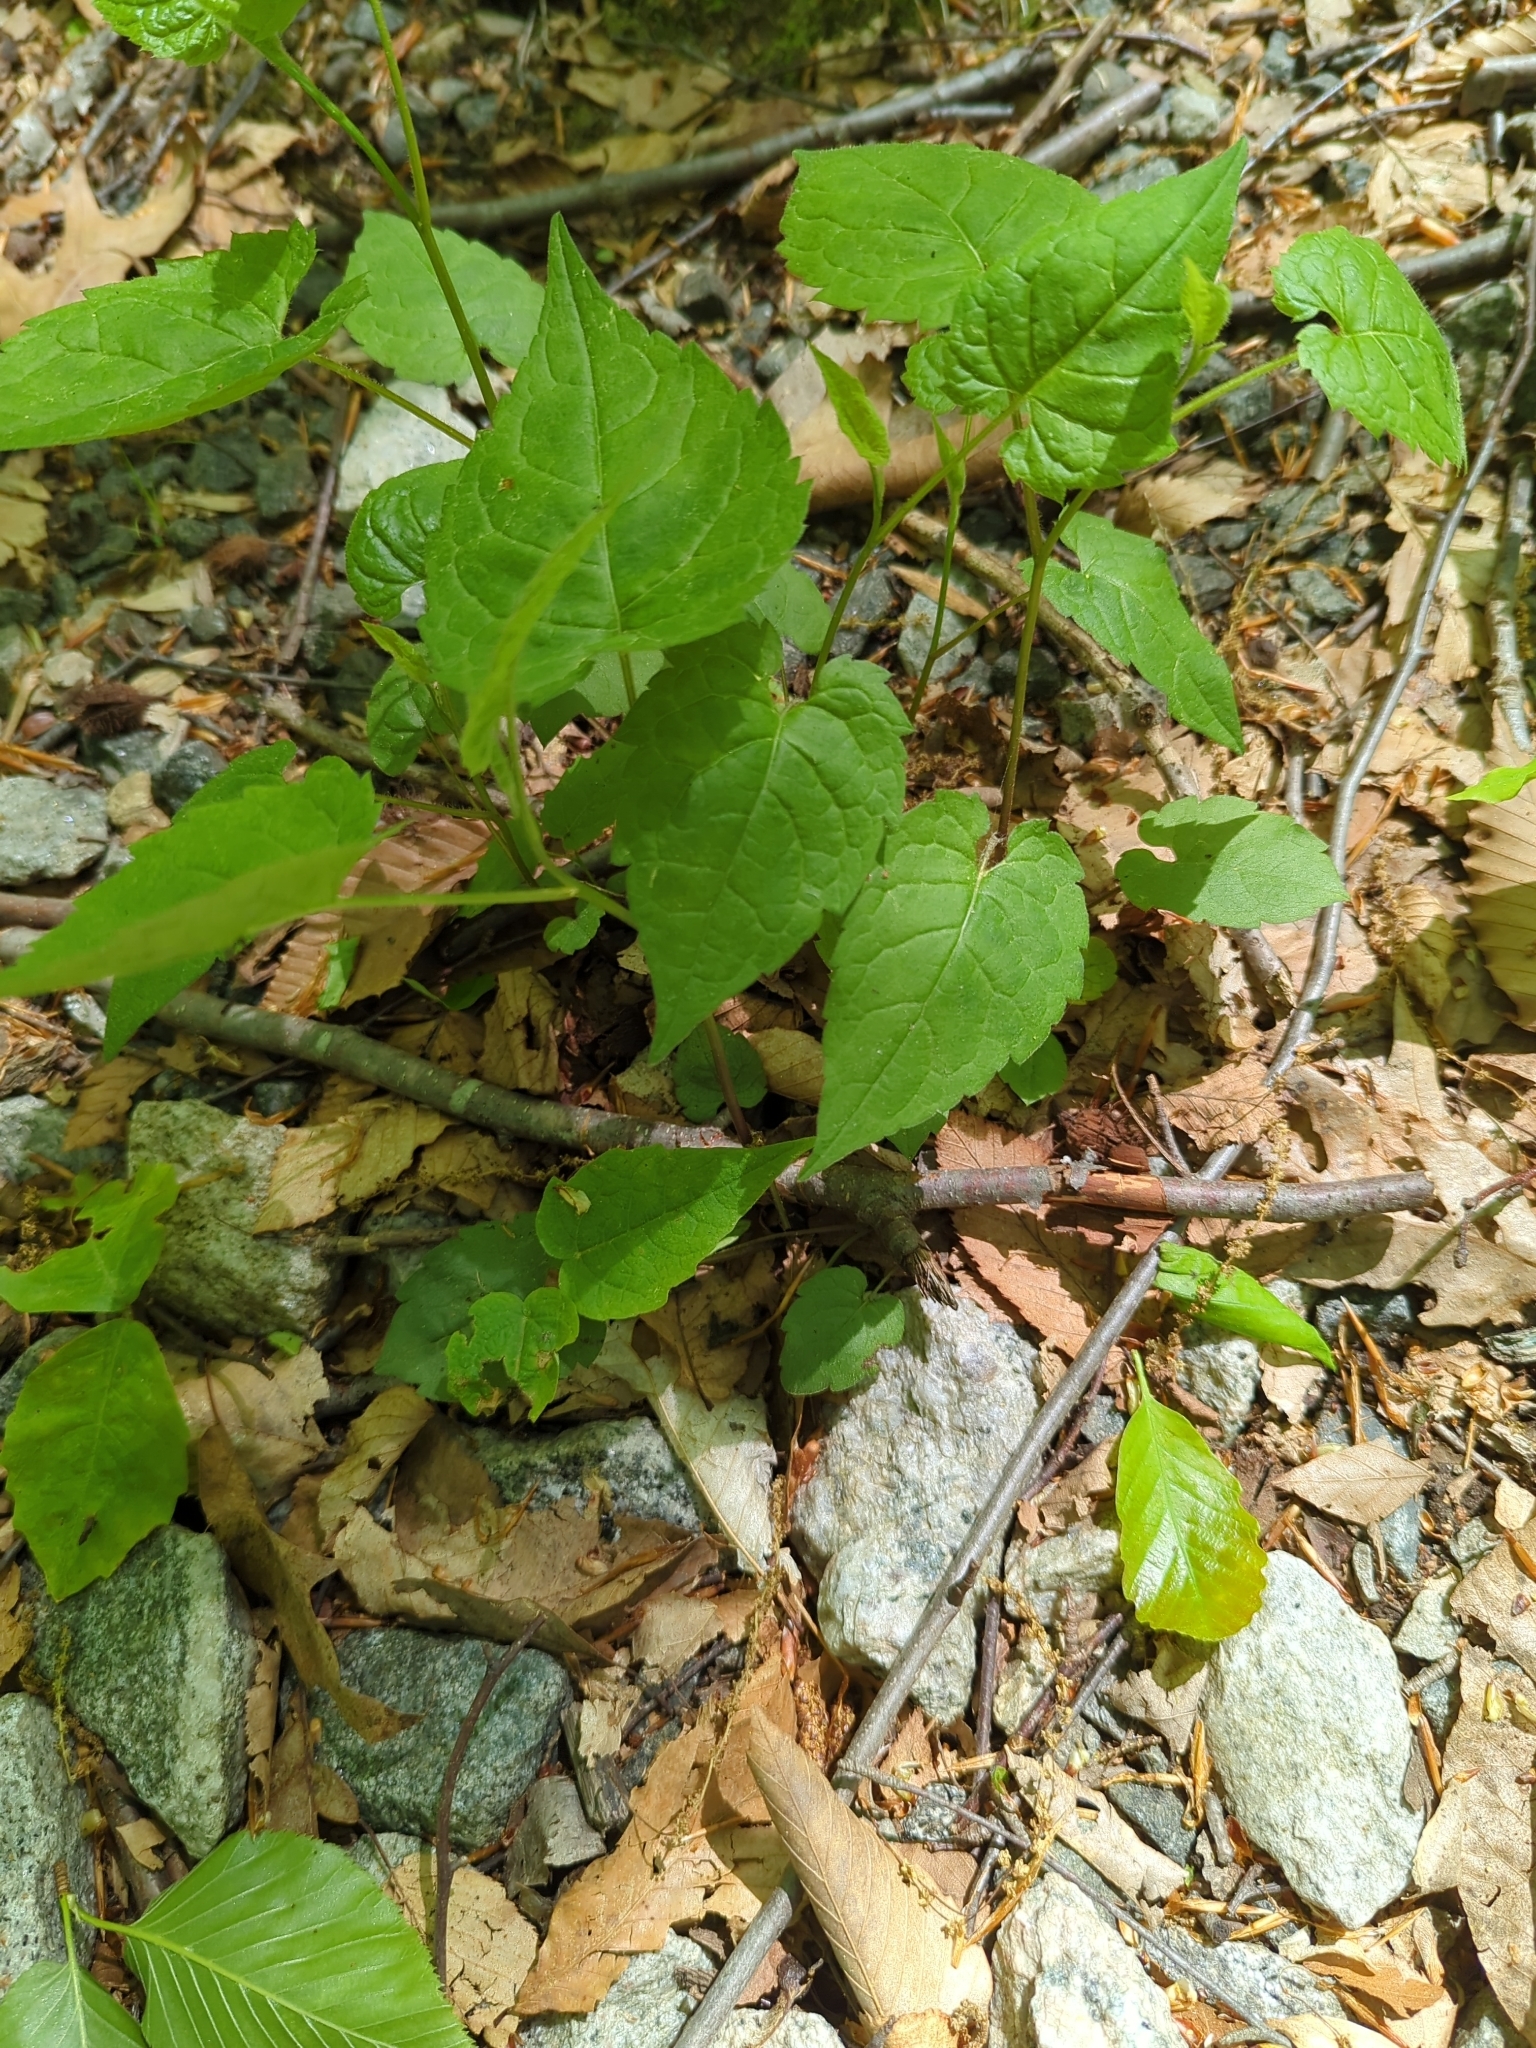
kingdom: Plantae
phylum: Tracheophyta
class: Magnoliopsida
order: Asterales
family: Asteraceae
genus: Eurybia
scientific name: Eurybia divaricata
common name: White wood aster
